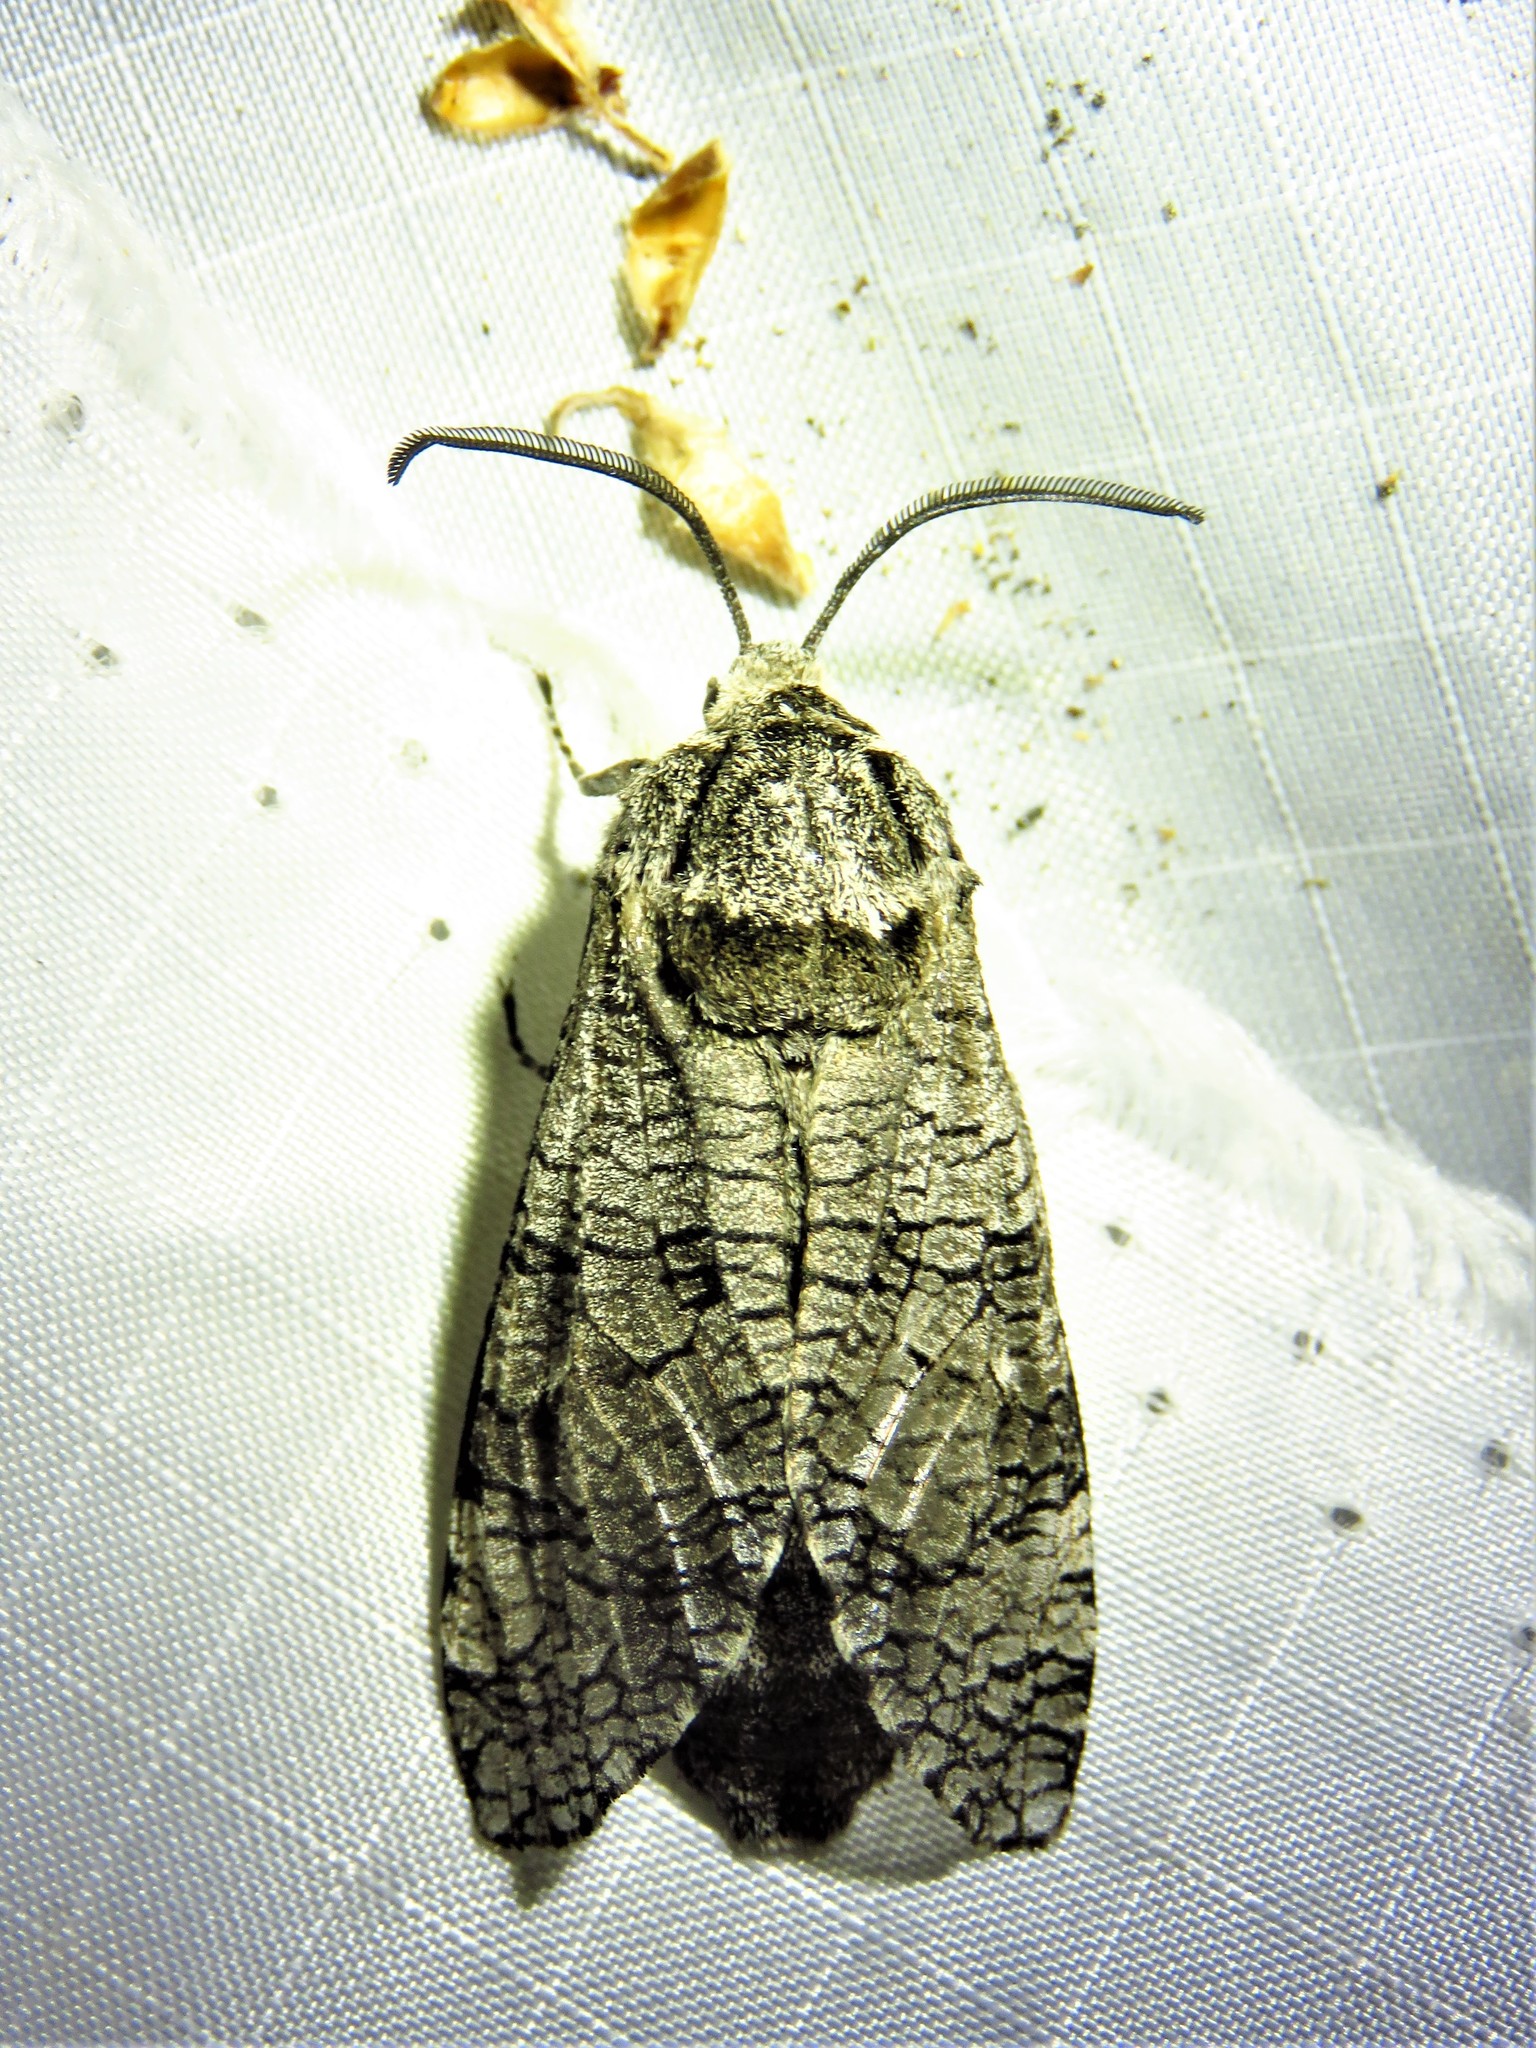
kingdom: Animalia
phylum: Arthropoda
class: Insecta
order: Lepidoptera
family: Cossidae
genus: Prionoxystus
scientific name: Prionoxystus macmurtrei
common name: Little carpenterworm
